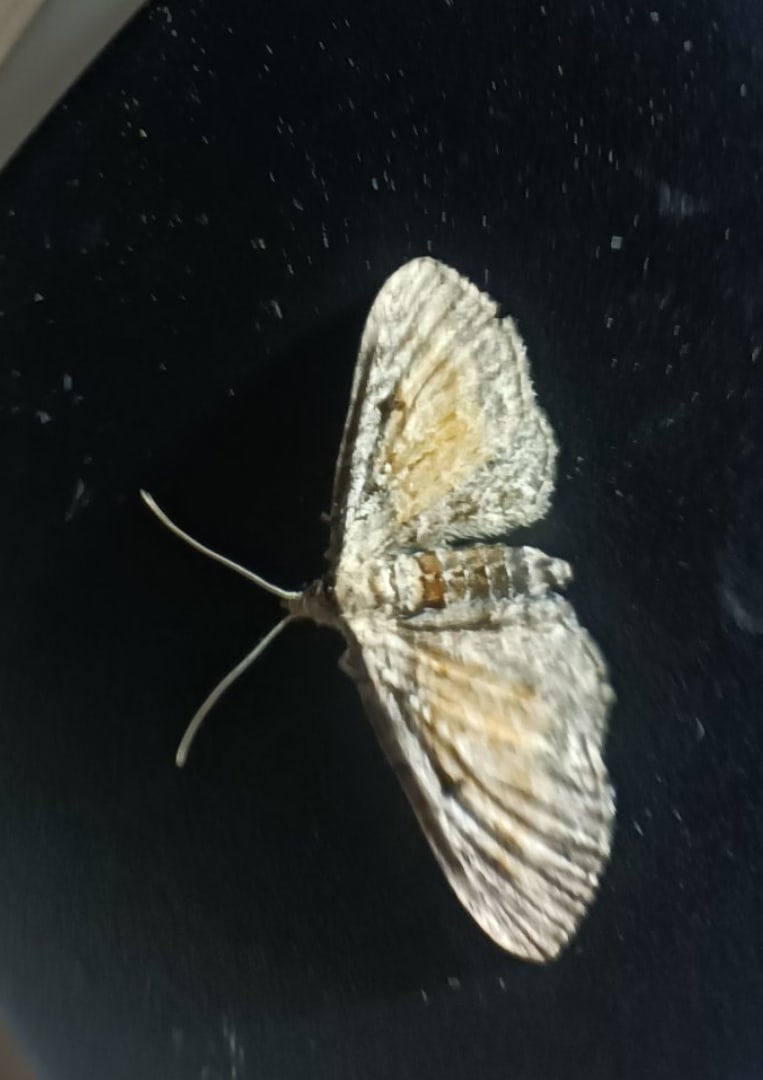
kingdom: Animalia
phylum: Arthropoda
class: Insecta
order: Lepidoptera
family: Geometridae
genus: Eupithecia
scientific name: Eupithecia icterata
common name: Tawny speckled pug
